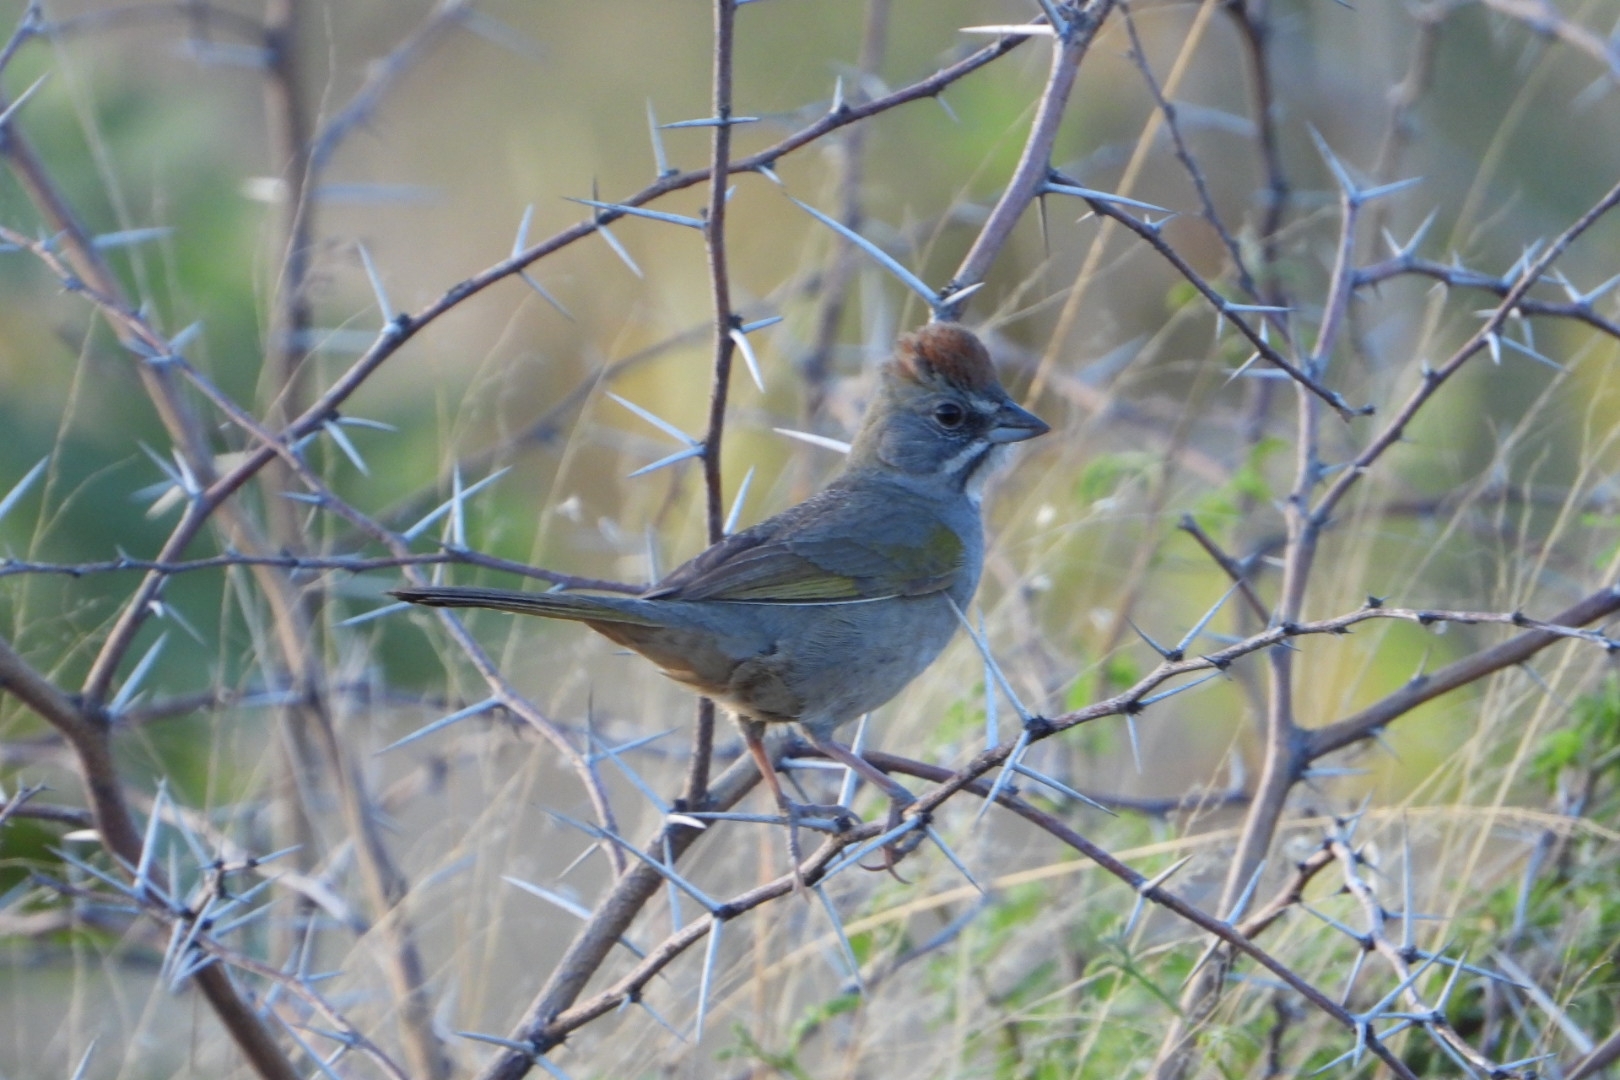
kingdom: Animalia
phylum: Chordata
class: Aves
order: Passeriformes
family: Passerellidae
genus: Pipilo
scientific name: Pipilo chlorurus
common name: Green-tailed towhee
